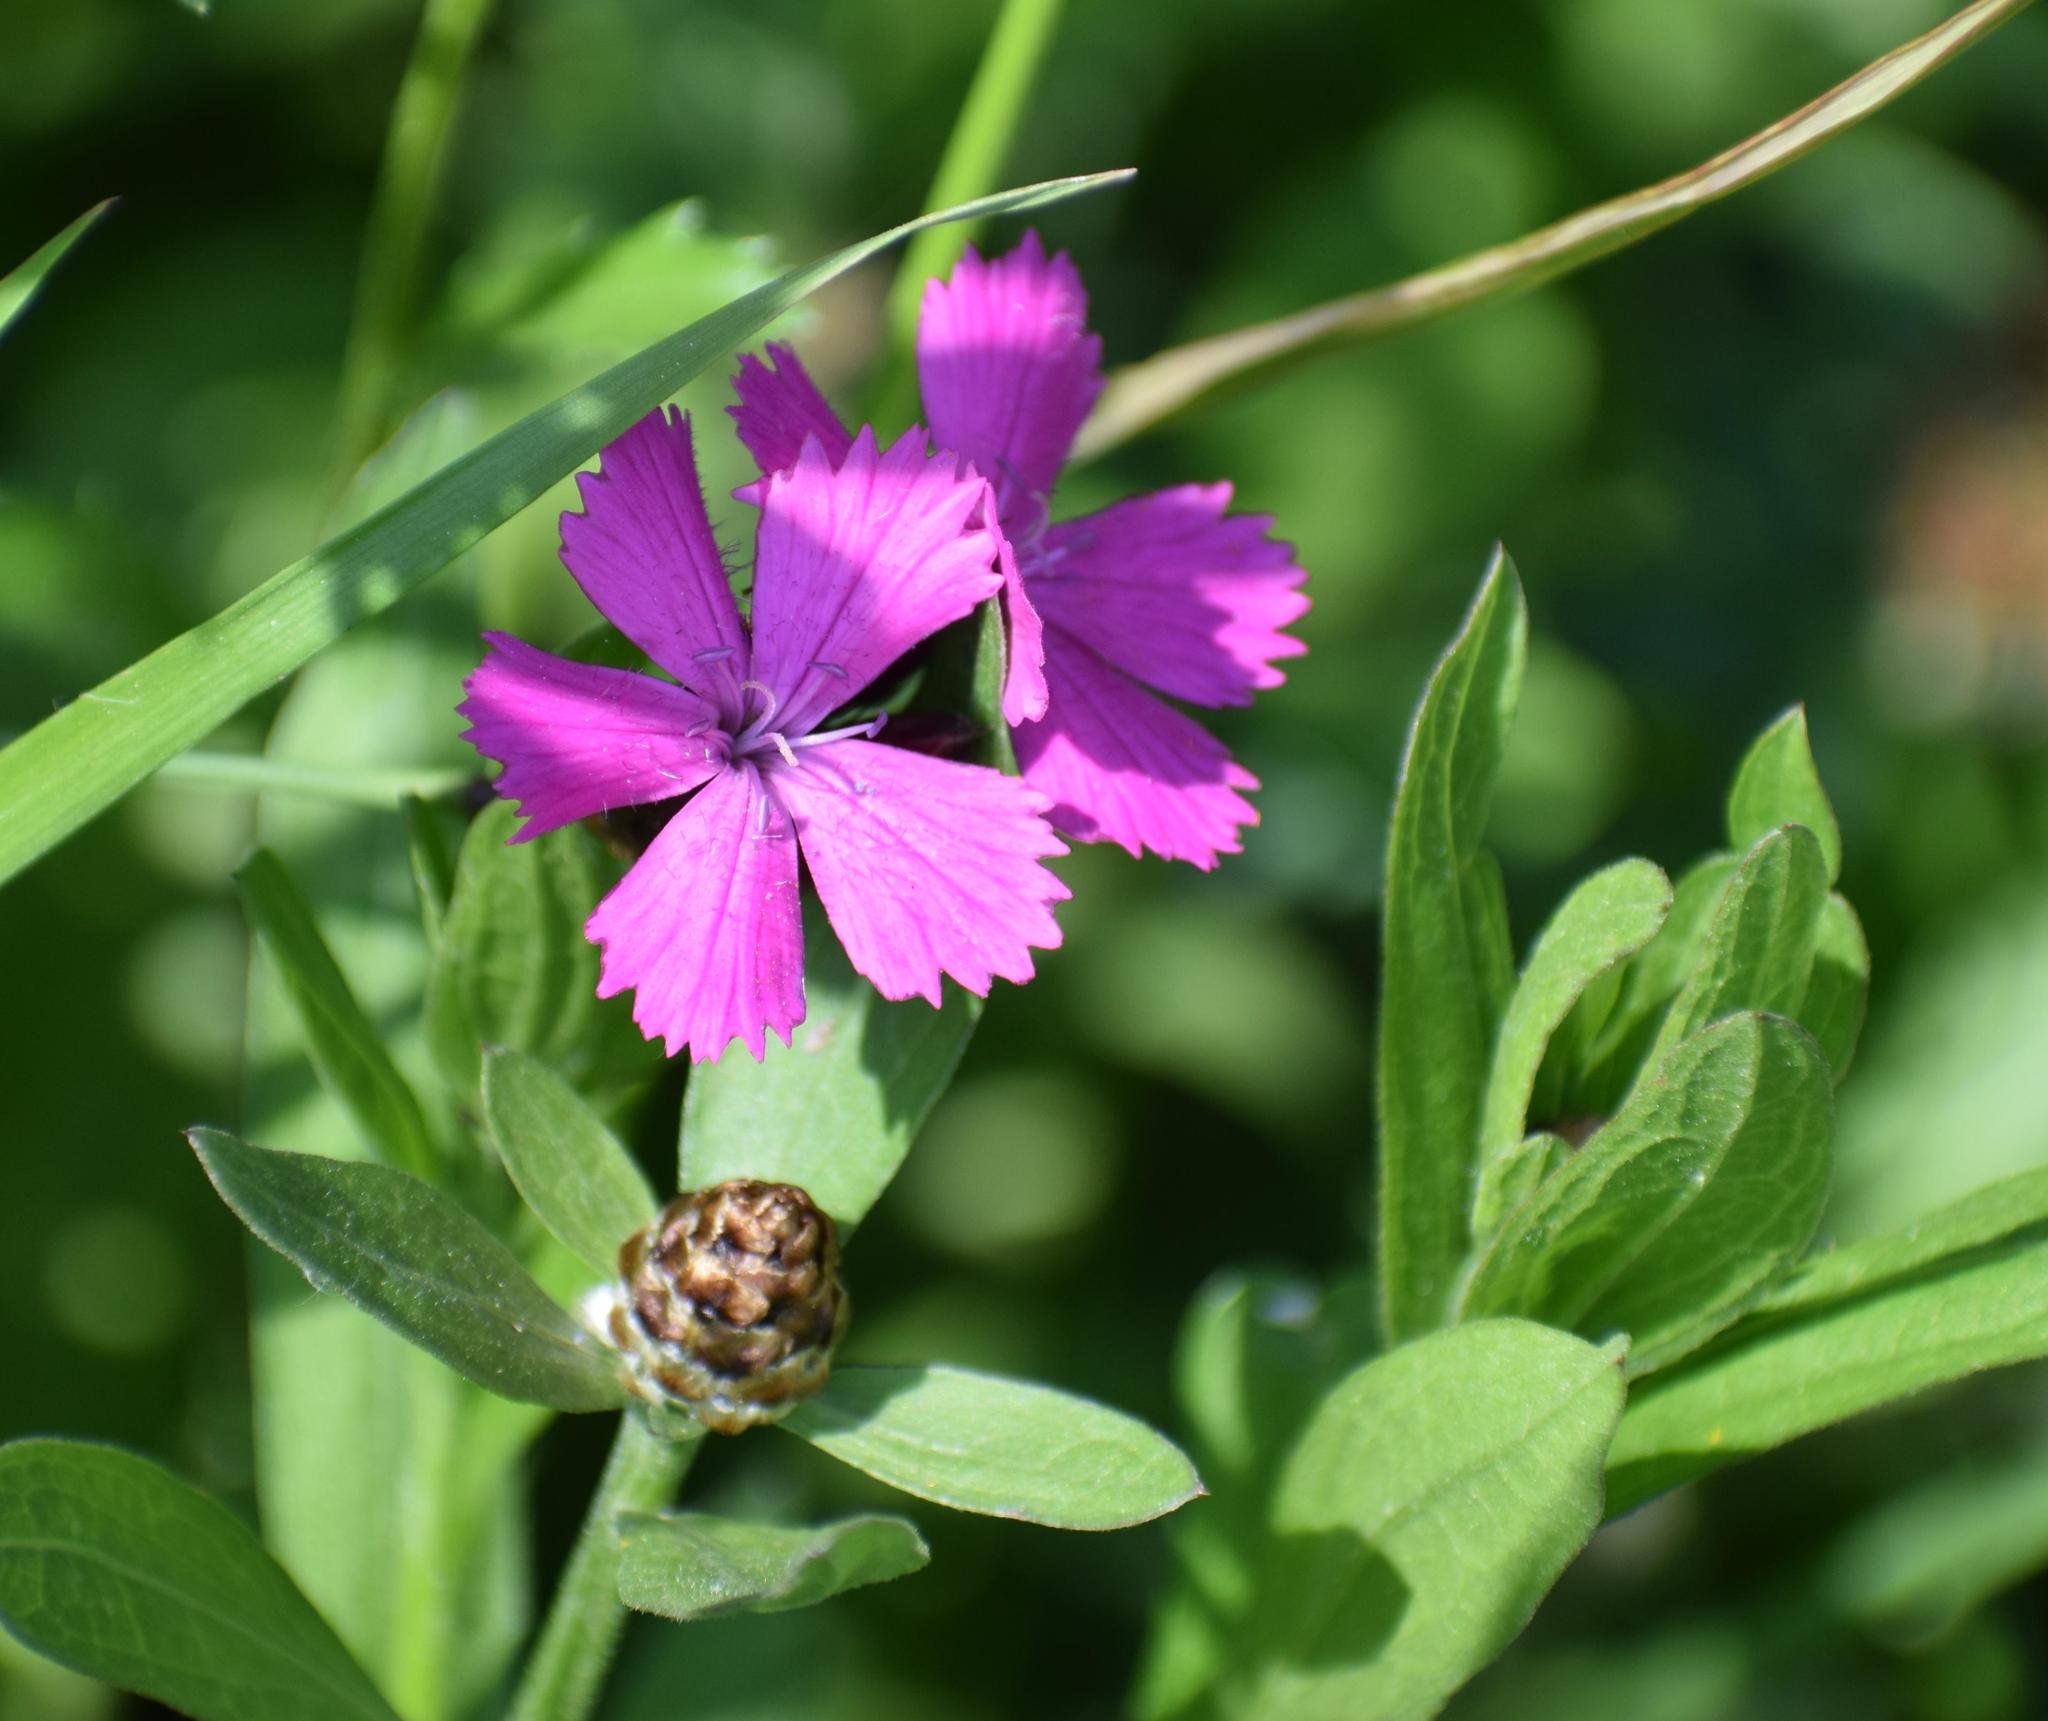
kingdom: Plantae
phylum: Tracheophyta
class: Magnoliopsida
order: Caryophyllales
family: Caryophyllaceae
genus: Dianthus
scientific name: Dianthus carthusianorum
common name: Carthusian pink
